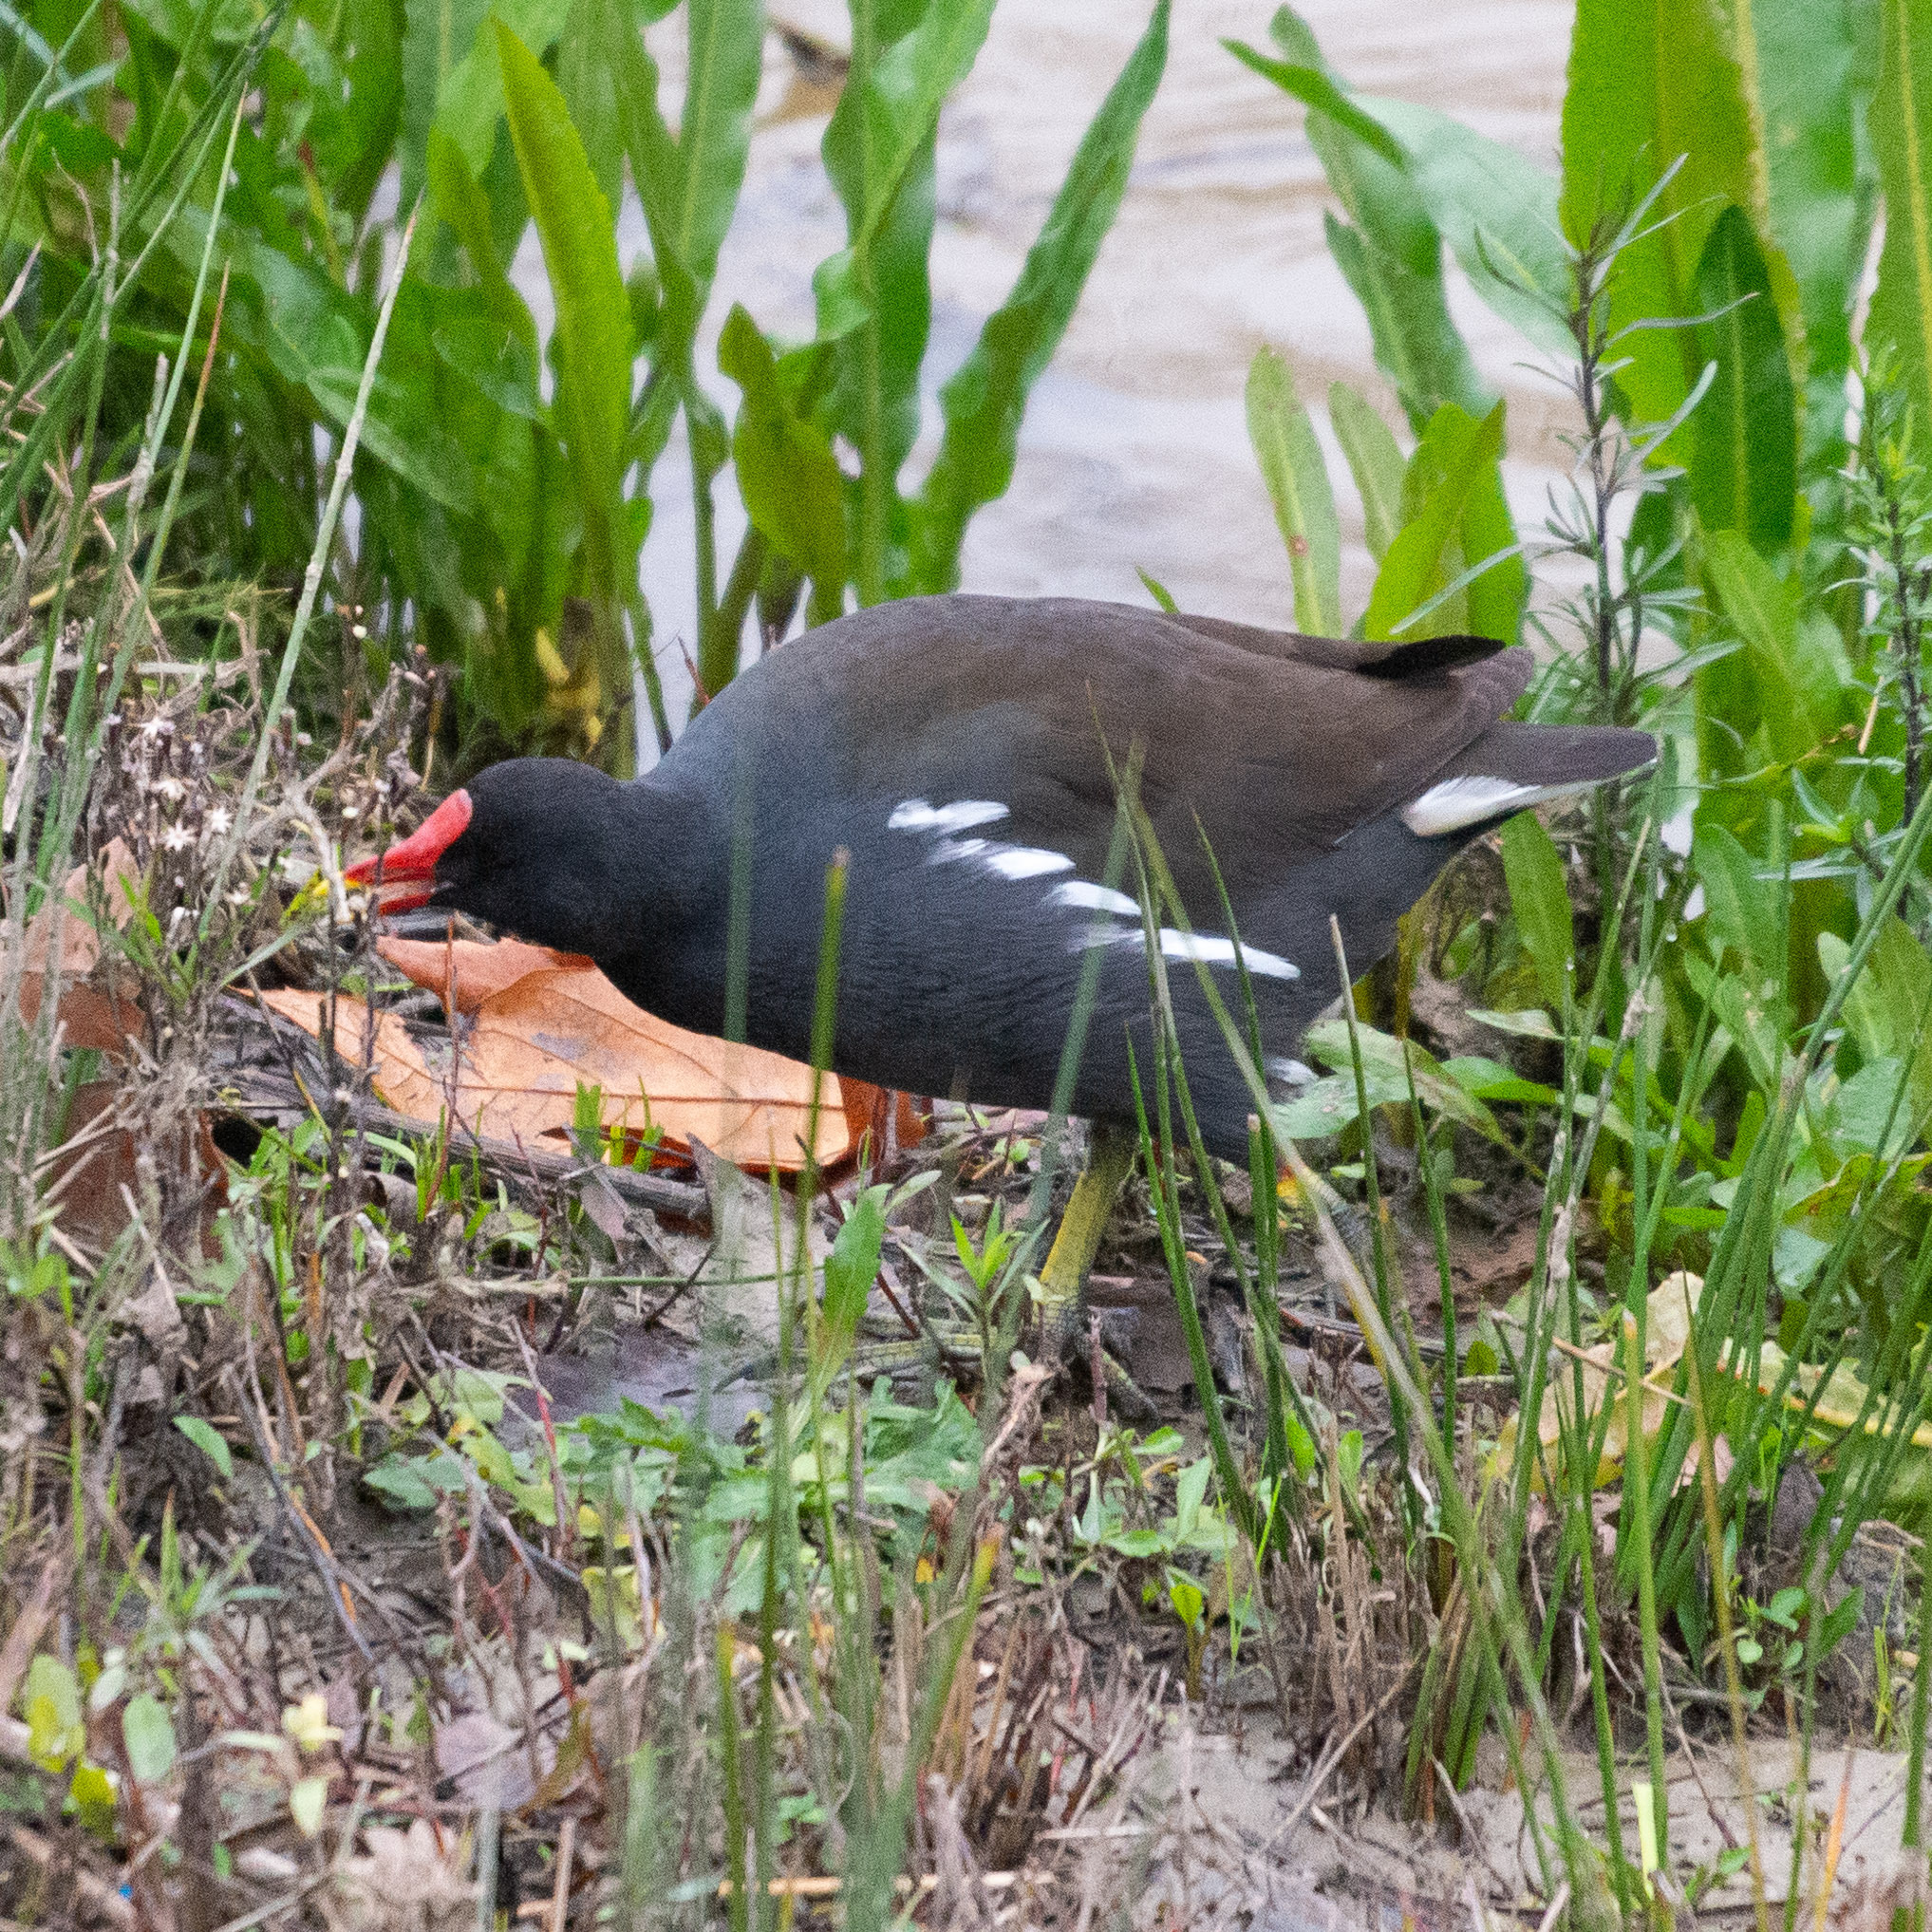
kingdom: Animalia
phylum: Chordata
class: Aves
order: Gruiformes
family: Rallidae
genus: Gallinula
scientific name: Gallinula chloropus
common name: Common moorhen
